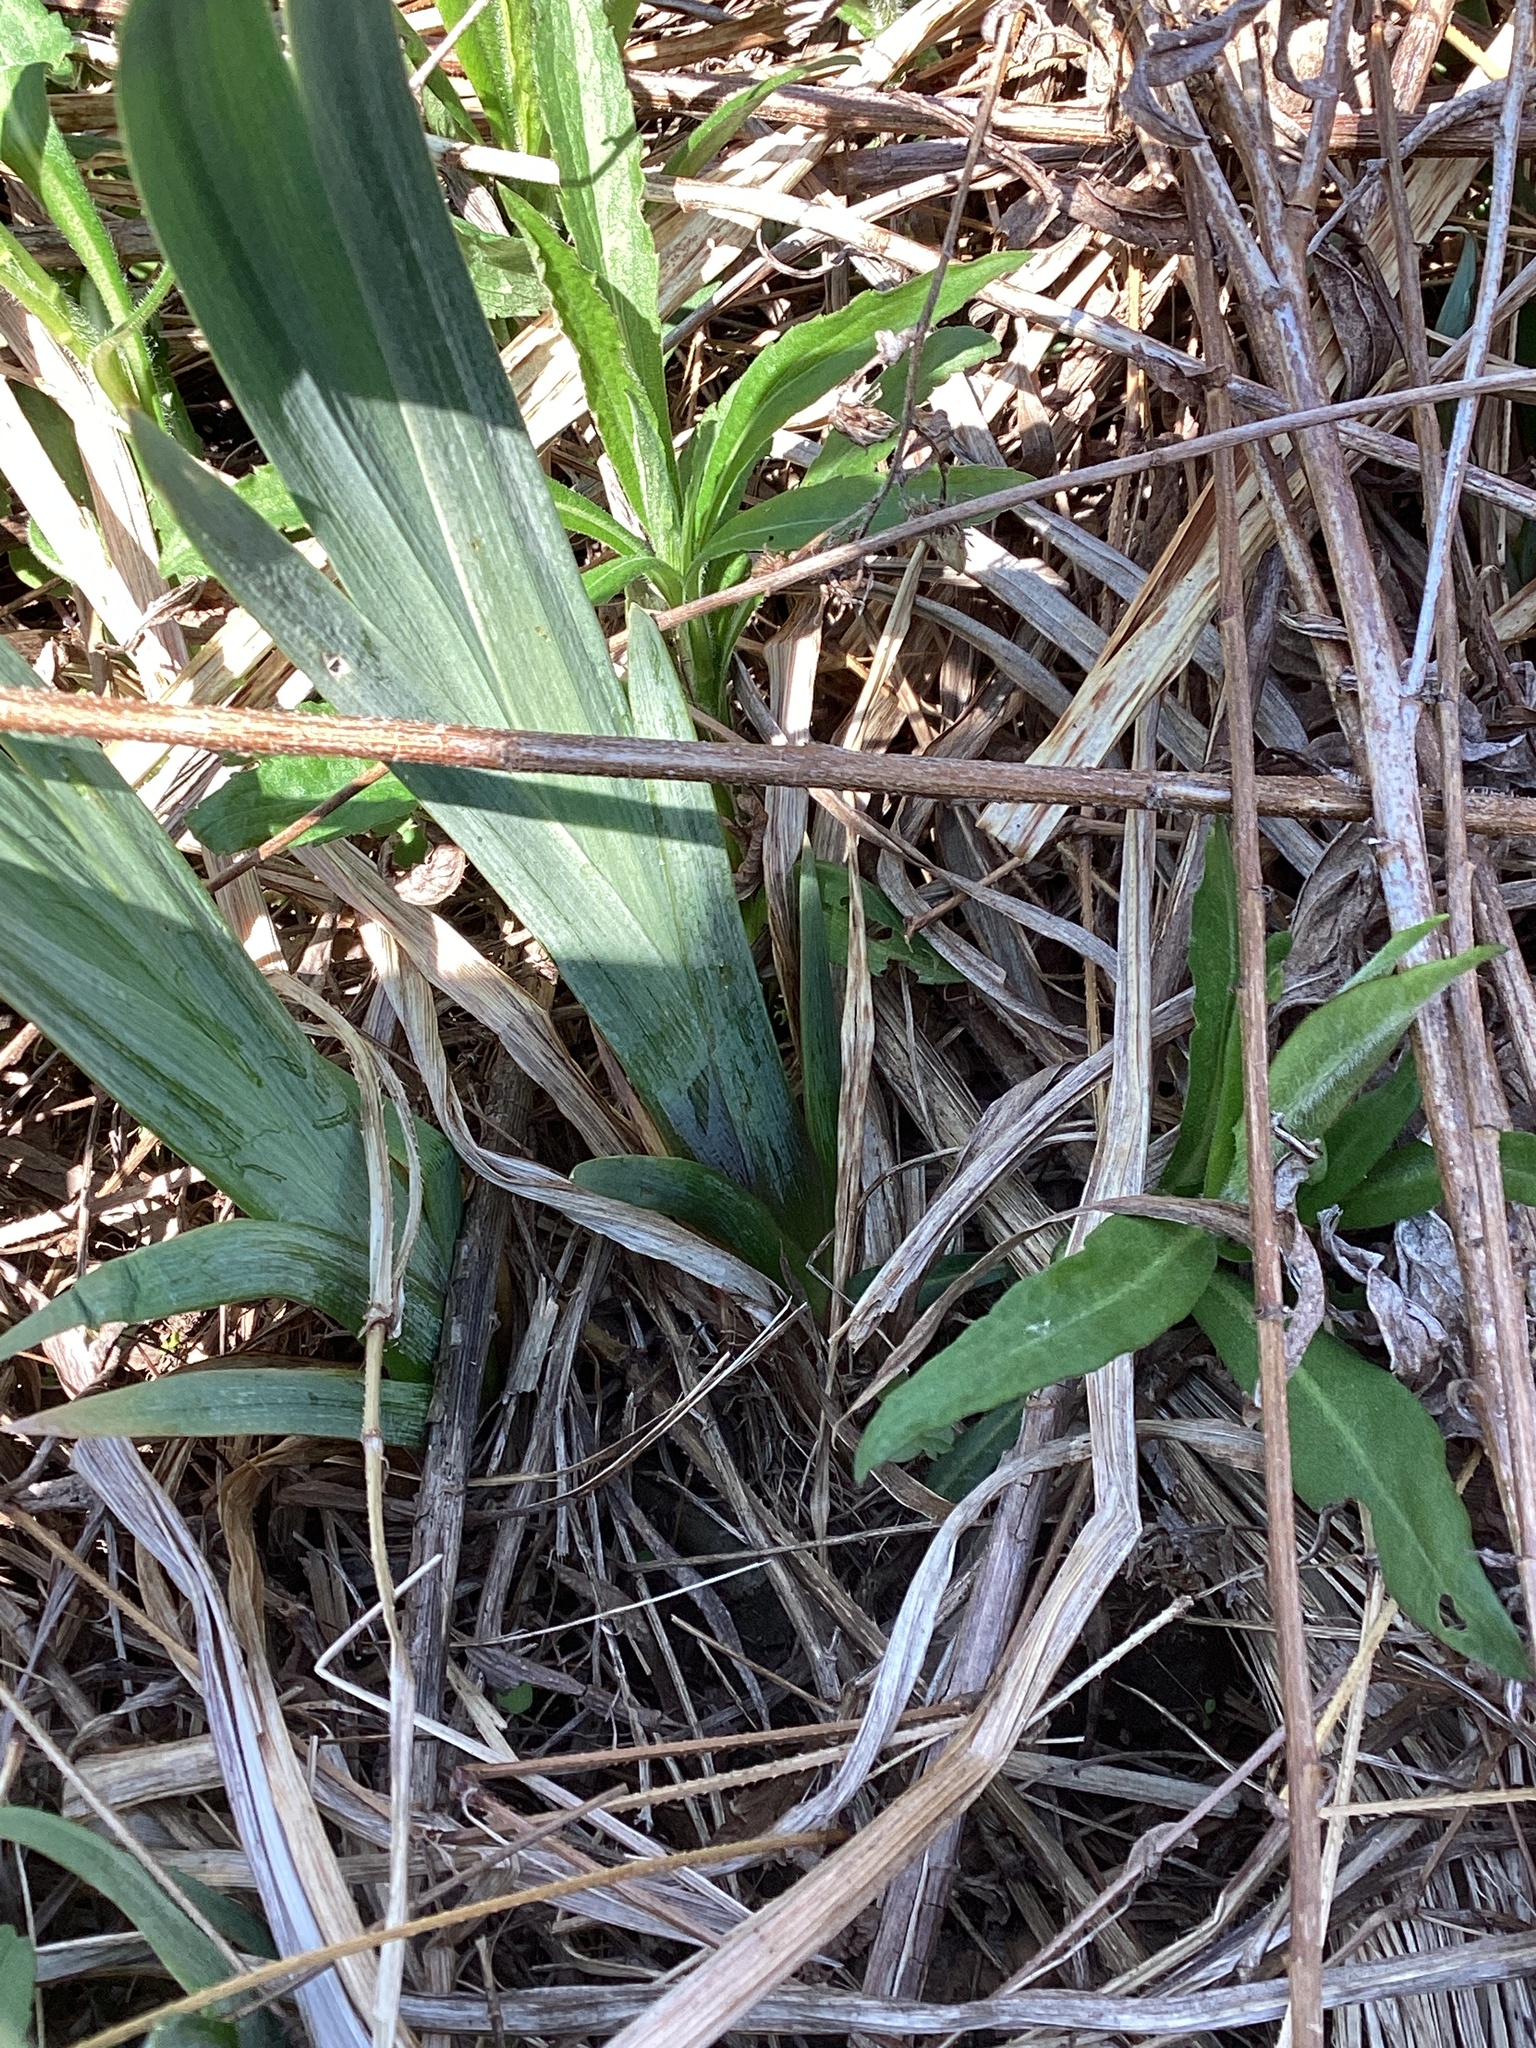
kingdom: Plantae
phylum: Tracheophyta
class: Liliopsida
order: Asparagales
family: Iridaceae
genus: Iris
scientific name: Iris pseudacorus
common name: Yellow flag
